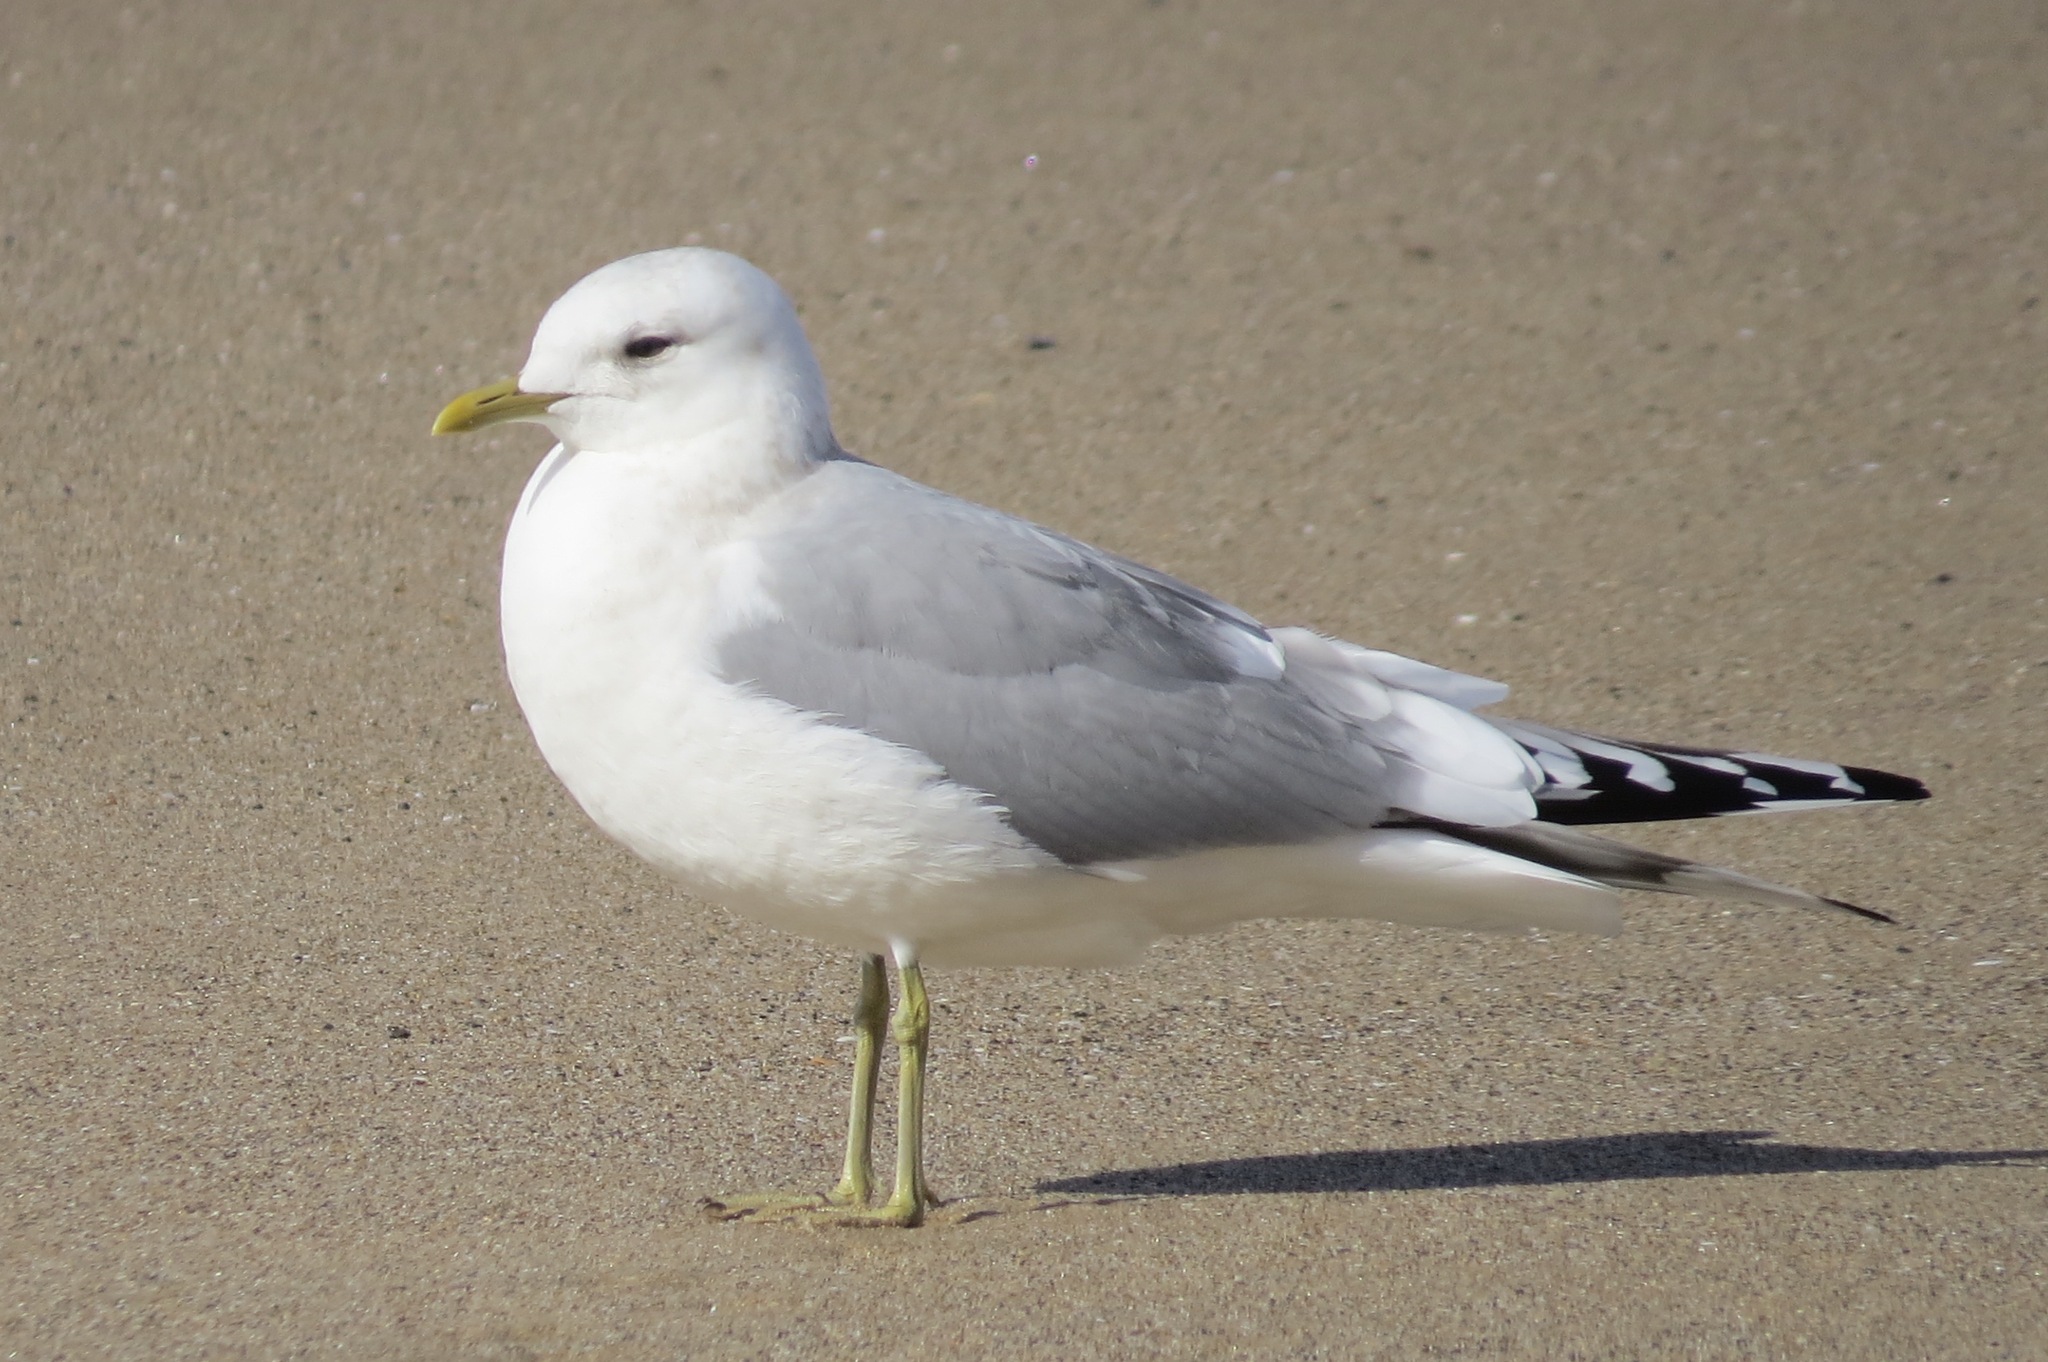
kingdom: Animalia
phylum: Chordata
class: Aves
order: Charadriiformes
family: Laridae
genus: Larus
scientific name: Larus brachyrhynchus
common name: Short-billed gull
